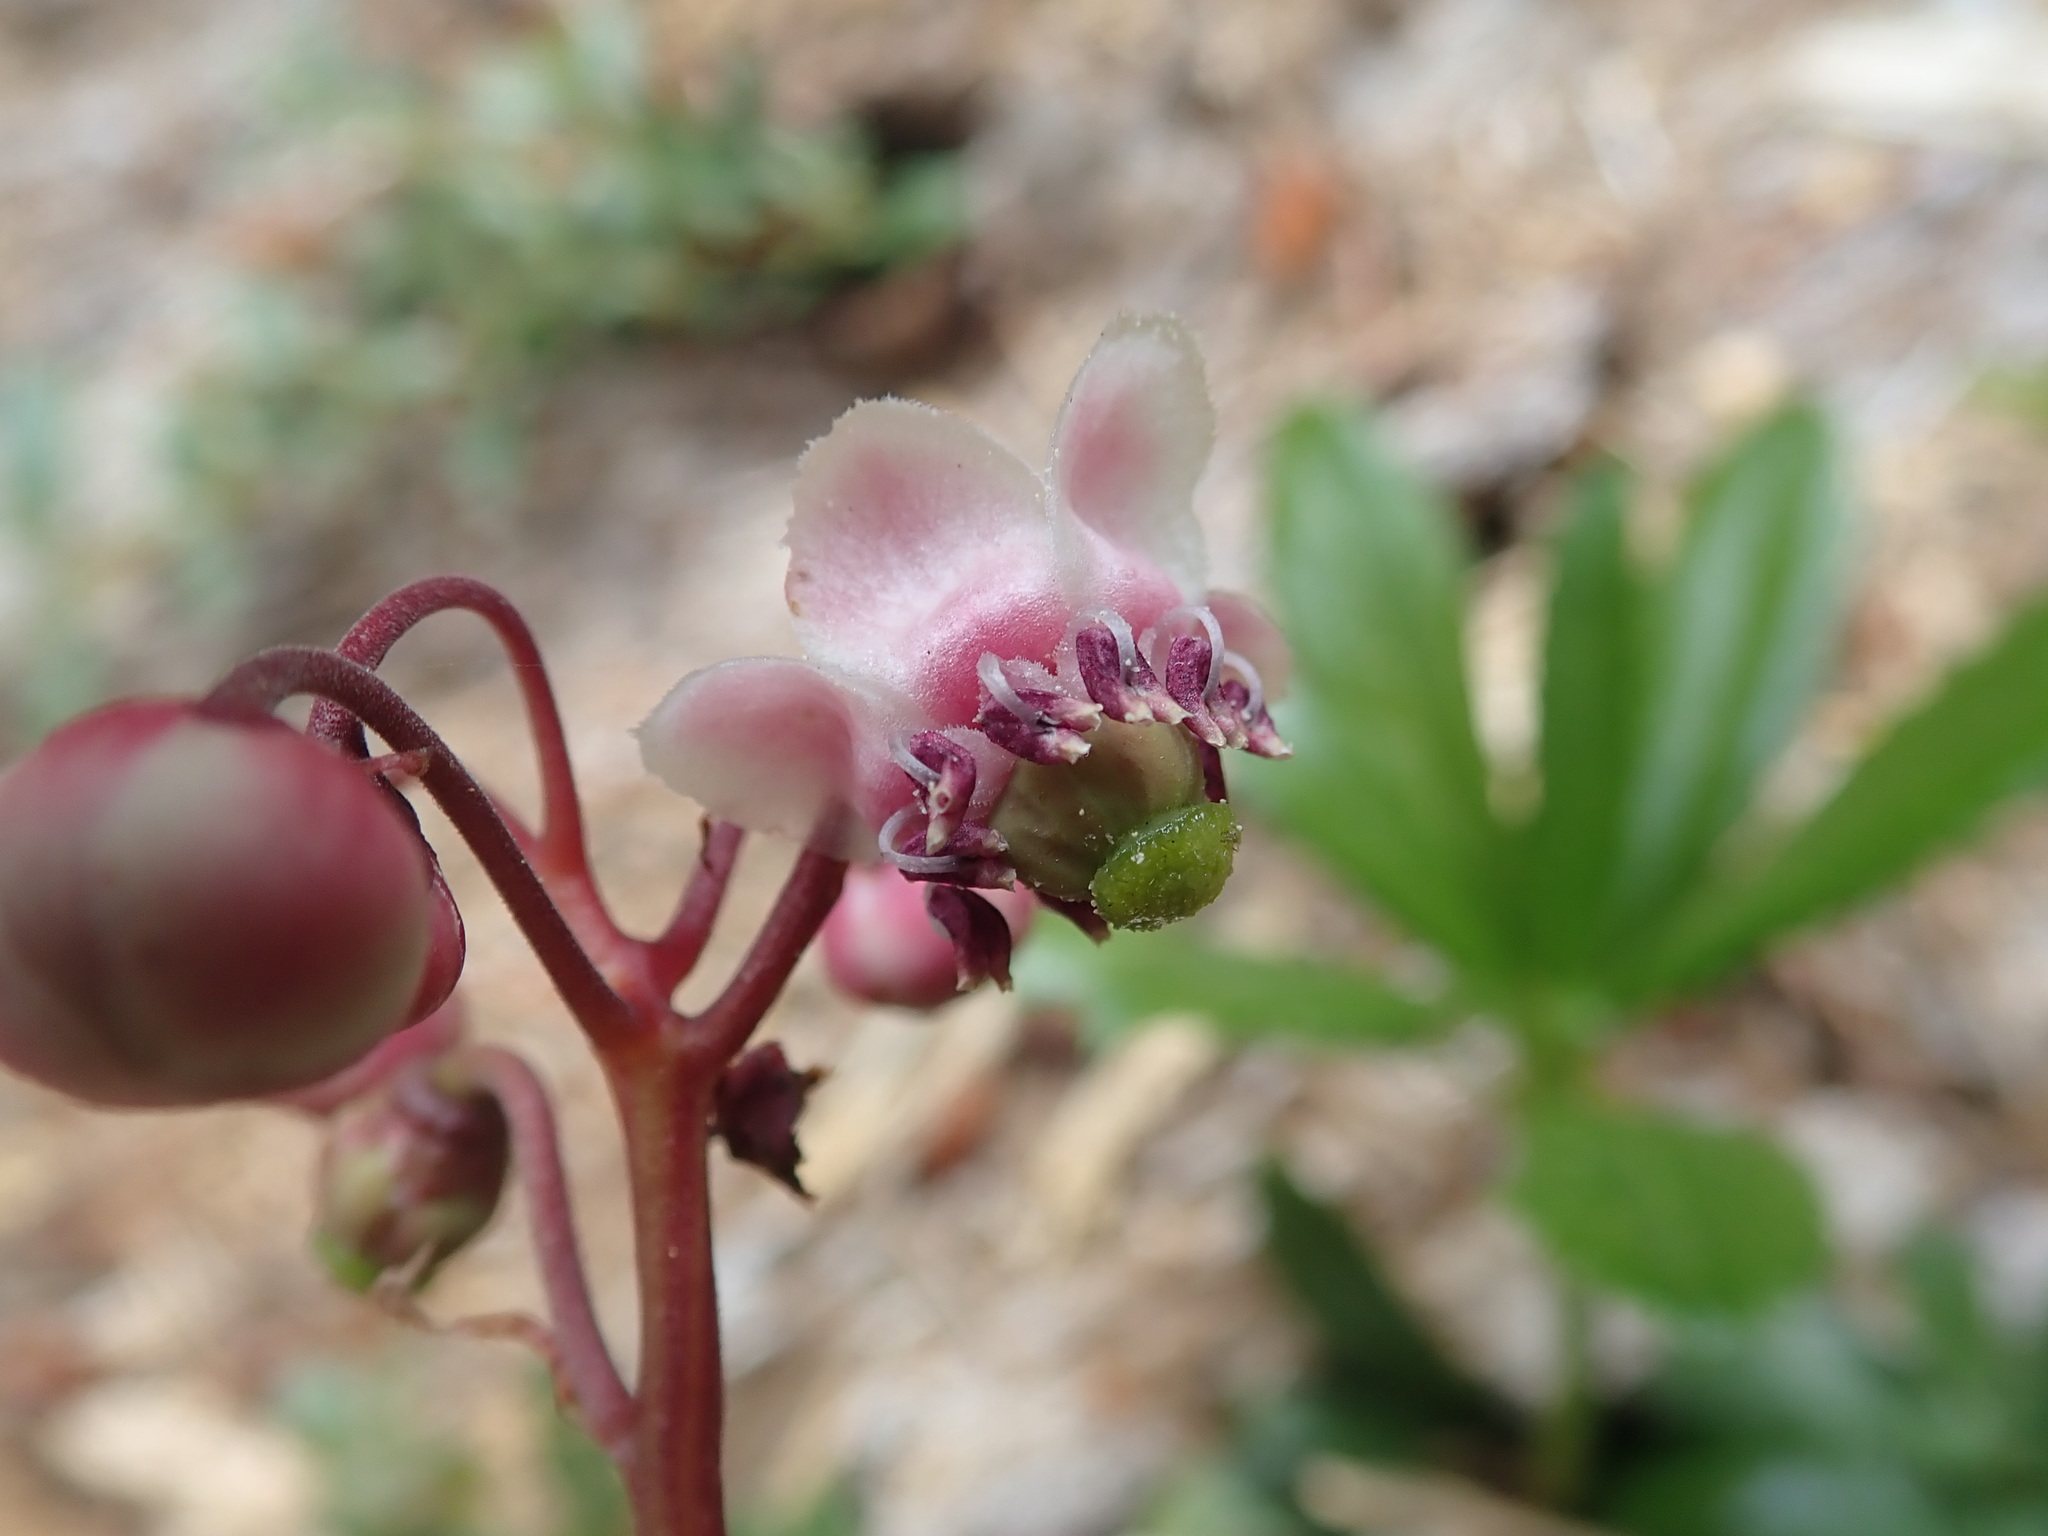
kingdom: Plantae
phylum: Tracheophyta
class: Magnoliopsida
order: Ericales
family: Ericaceae
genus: Chimaphila
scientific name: Chimaphila umbellata
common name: Pipsissewa
